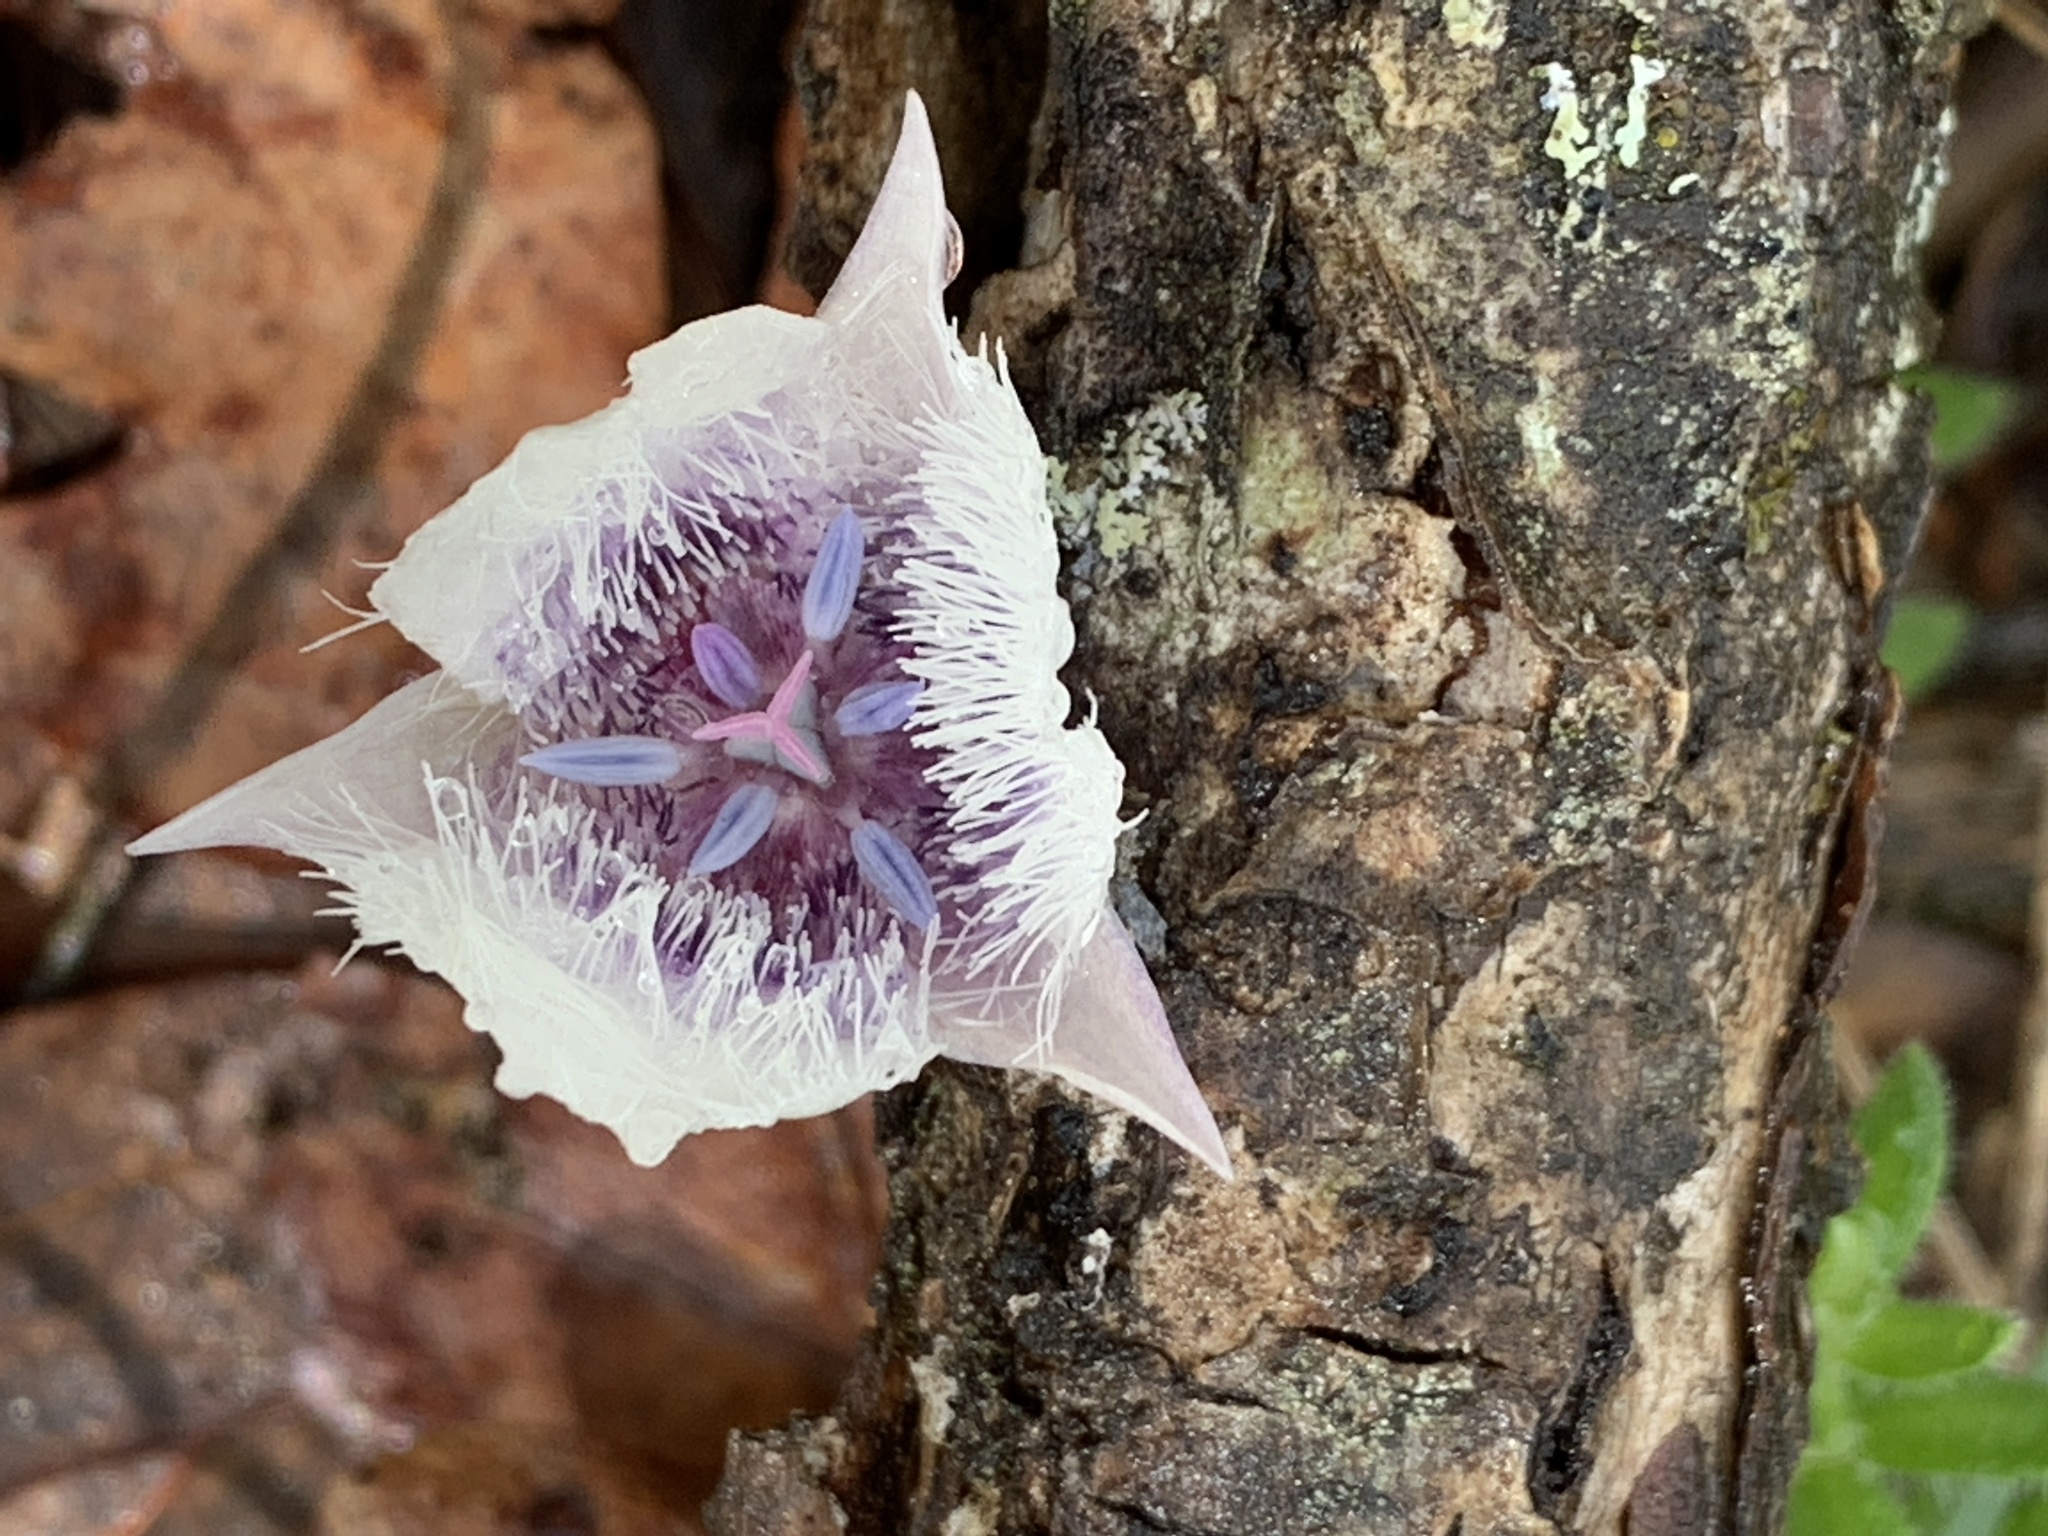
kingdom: Plantae
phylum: Tracheophyta
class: Liliopsida
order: Liliales
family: Liliaceae
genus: Calochortus
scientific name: Calochortus tolmiei
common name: Pussy-ears
